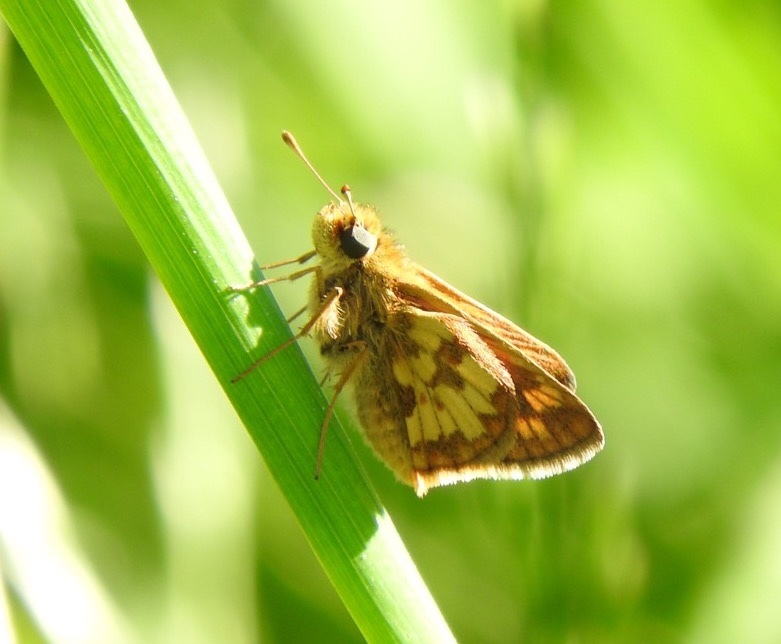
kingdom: Animalia
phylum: Arthropoda
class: Insecta
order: Lepidoptera
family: Hesperiidae
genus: Polites
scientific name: Polites coras
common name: Peck's skipper
